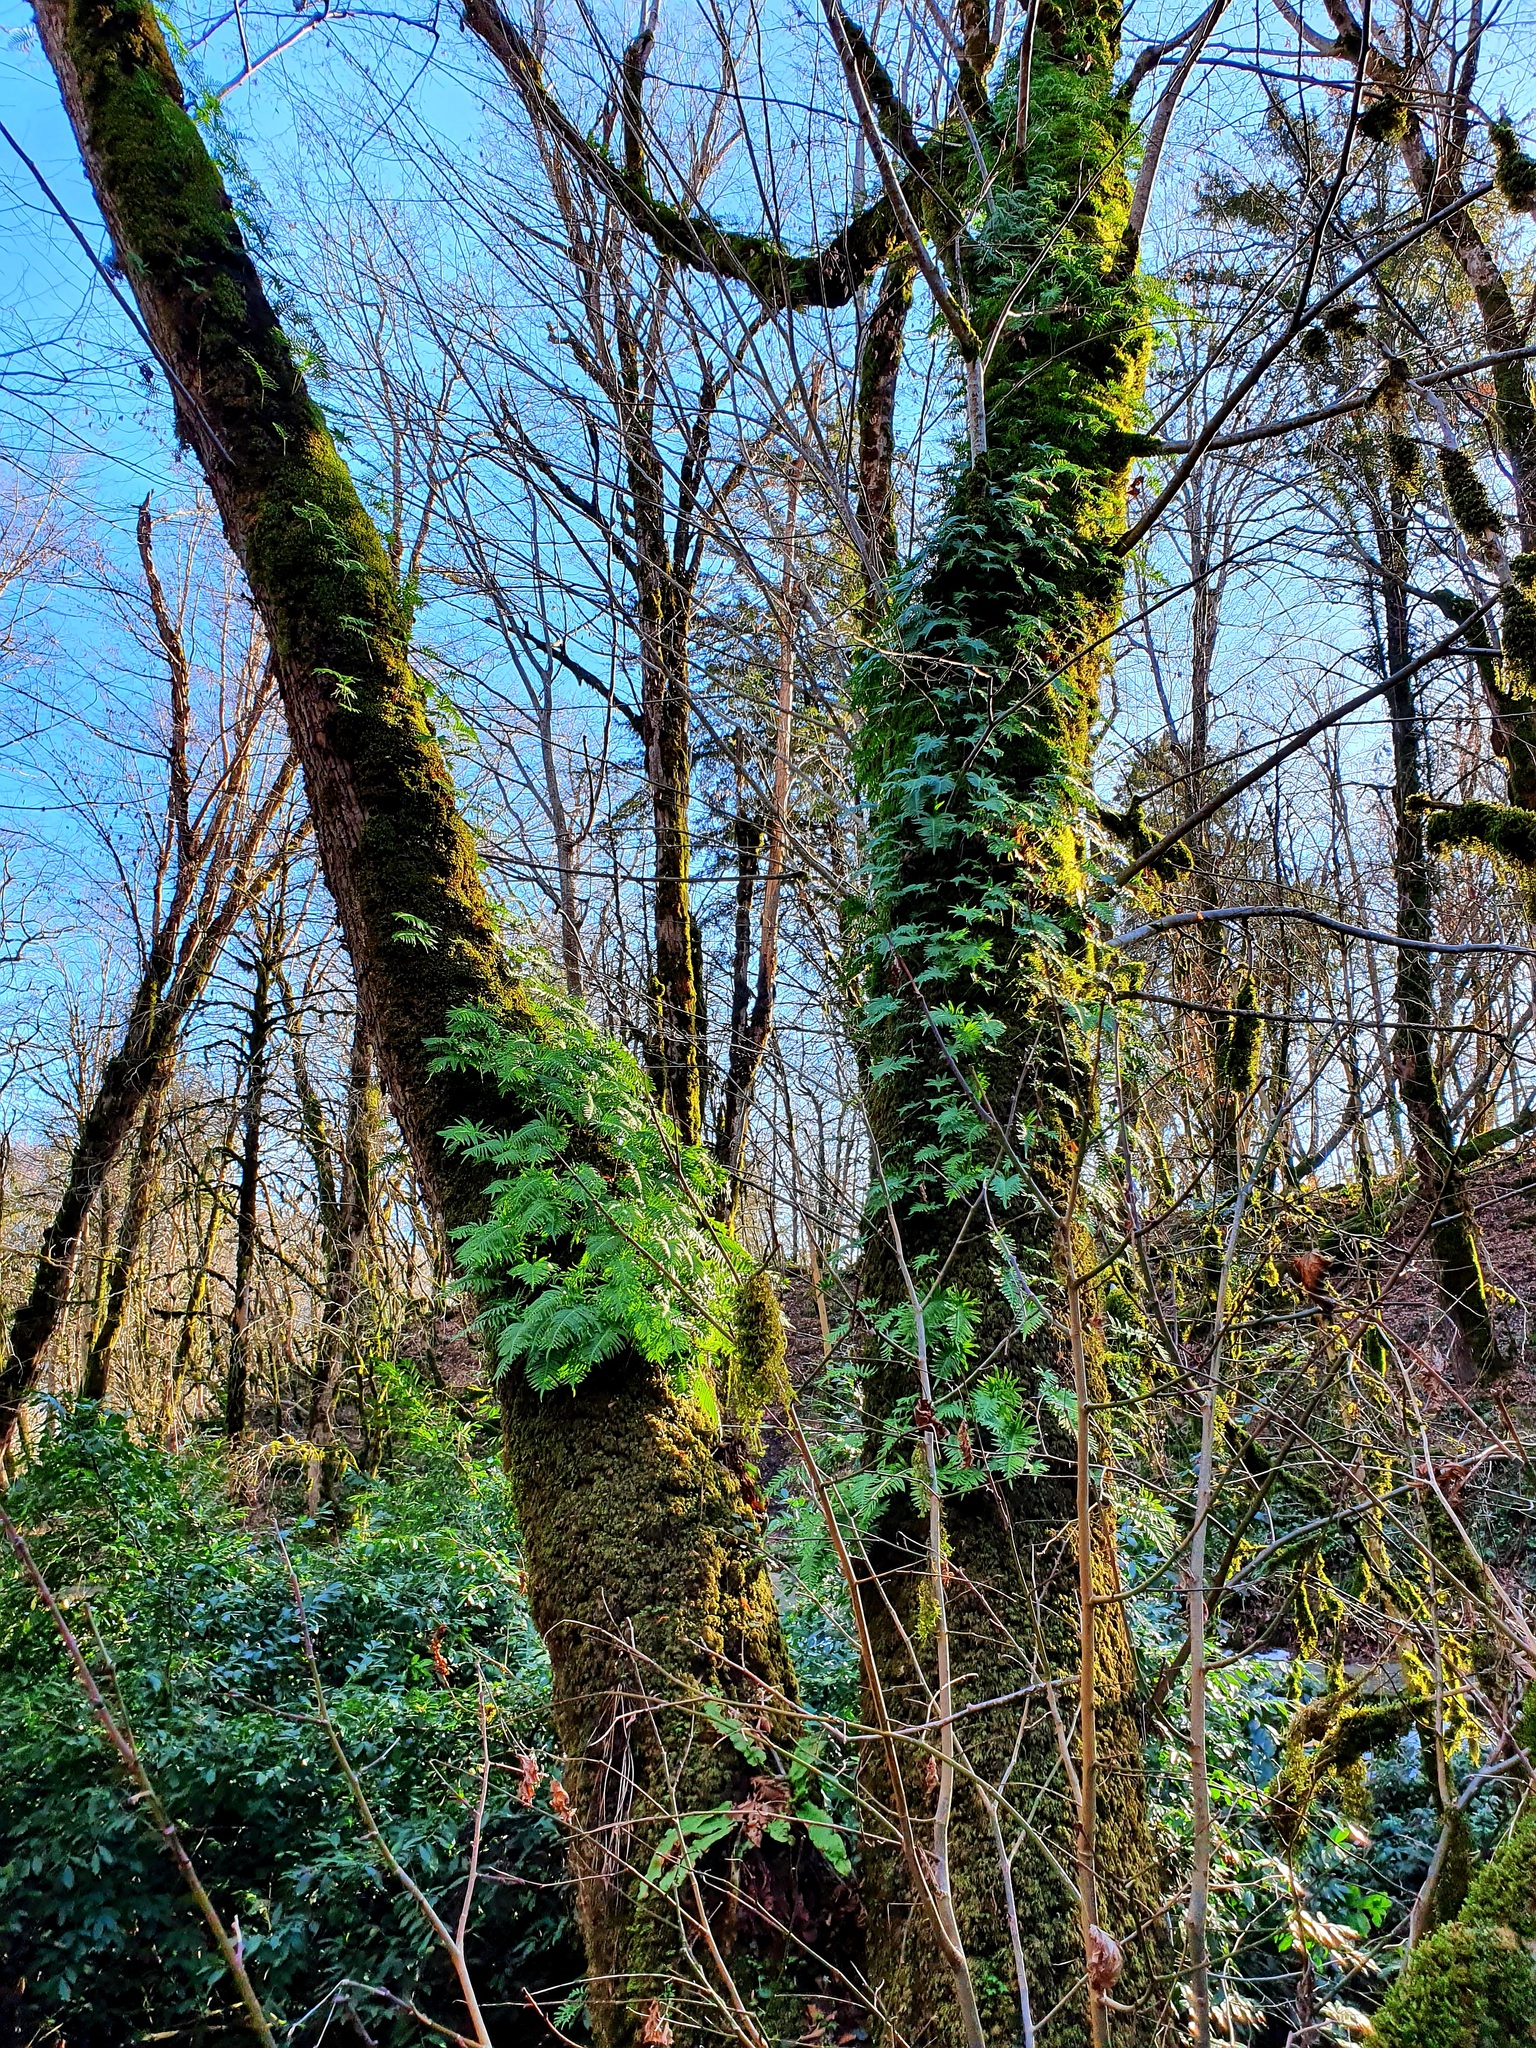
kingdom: Plantae
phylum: Tracheophyta
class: Polypodiopsida
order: Polypodiales
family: Polypodiaceae
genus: Polypodium
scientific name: Polypodium cambricum
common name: Southern polypody
